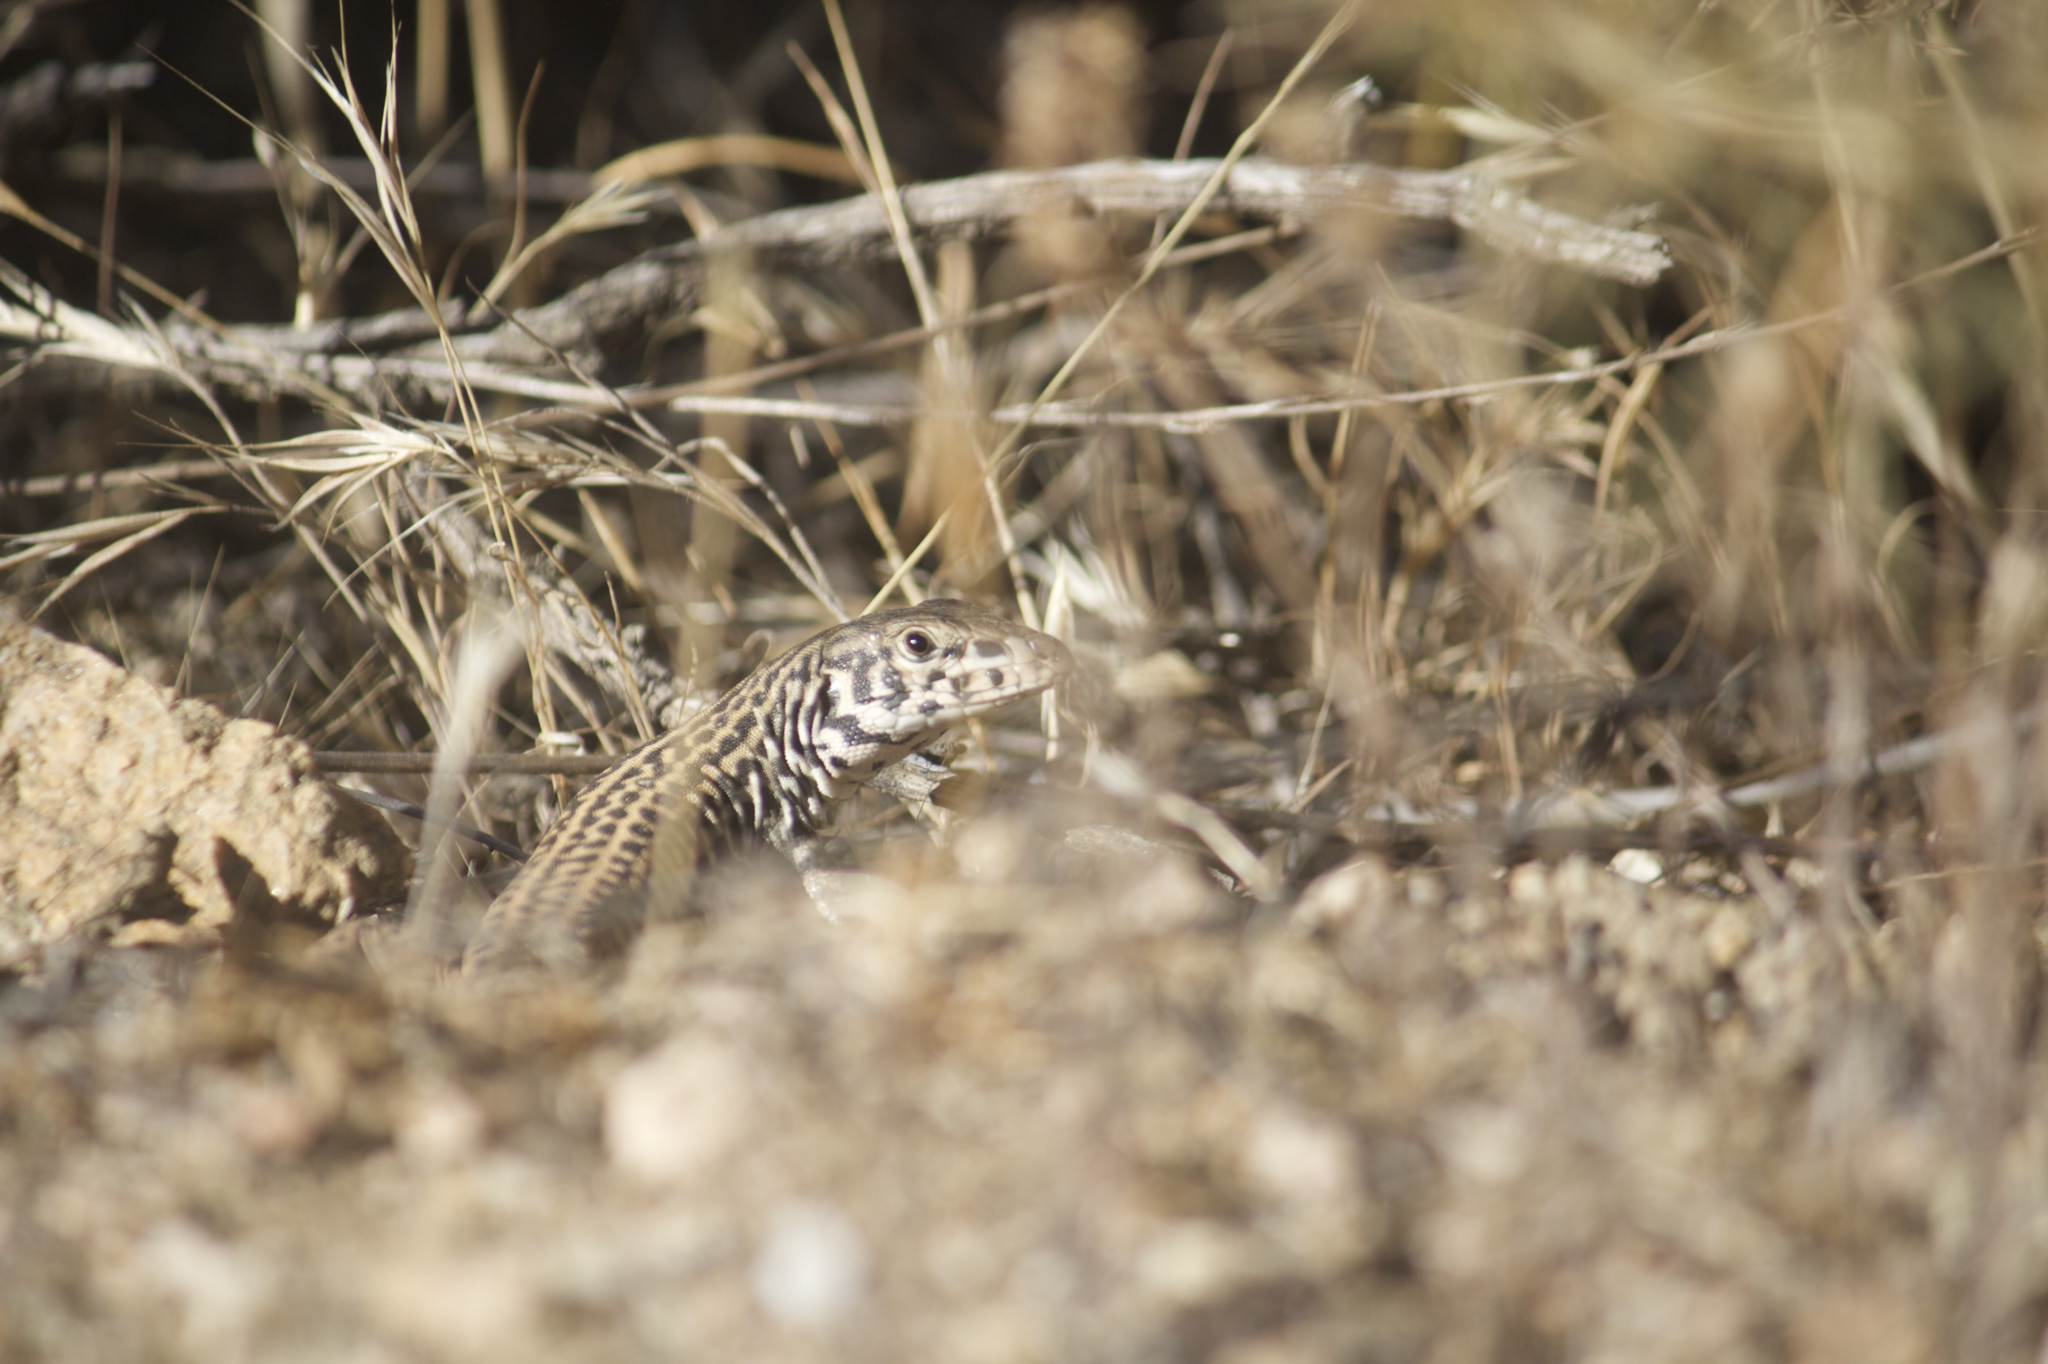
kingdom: Animalia
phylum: Chordata
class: Squamata
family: Teiidae
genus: Aspidoscelis
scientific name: Aspidoscelis tigris
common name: Tiger whiptail
